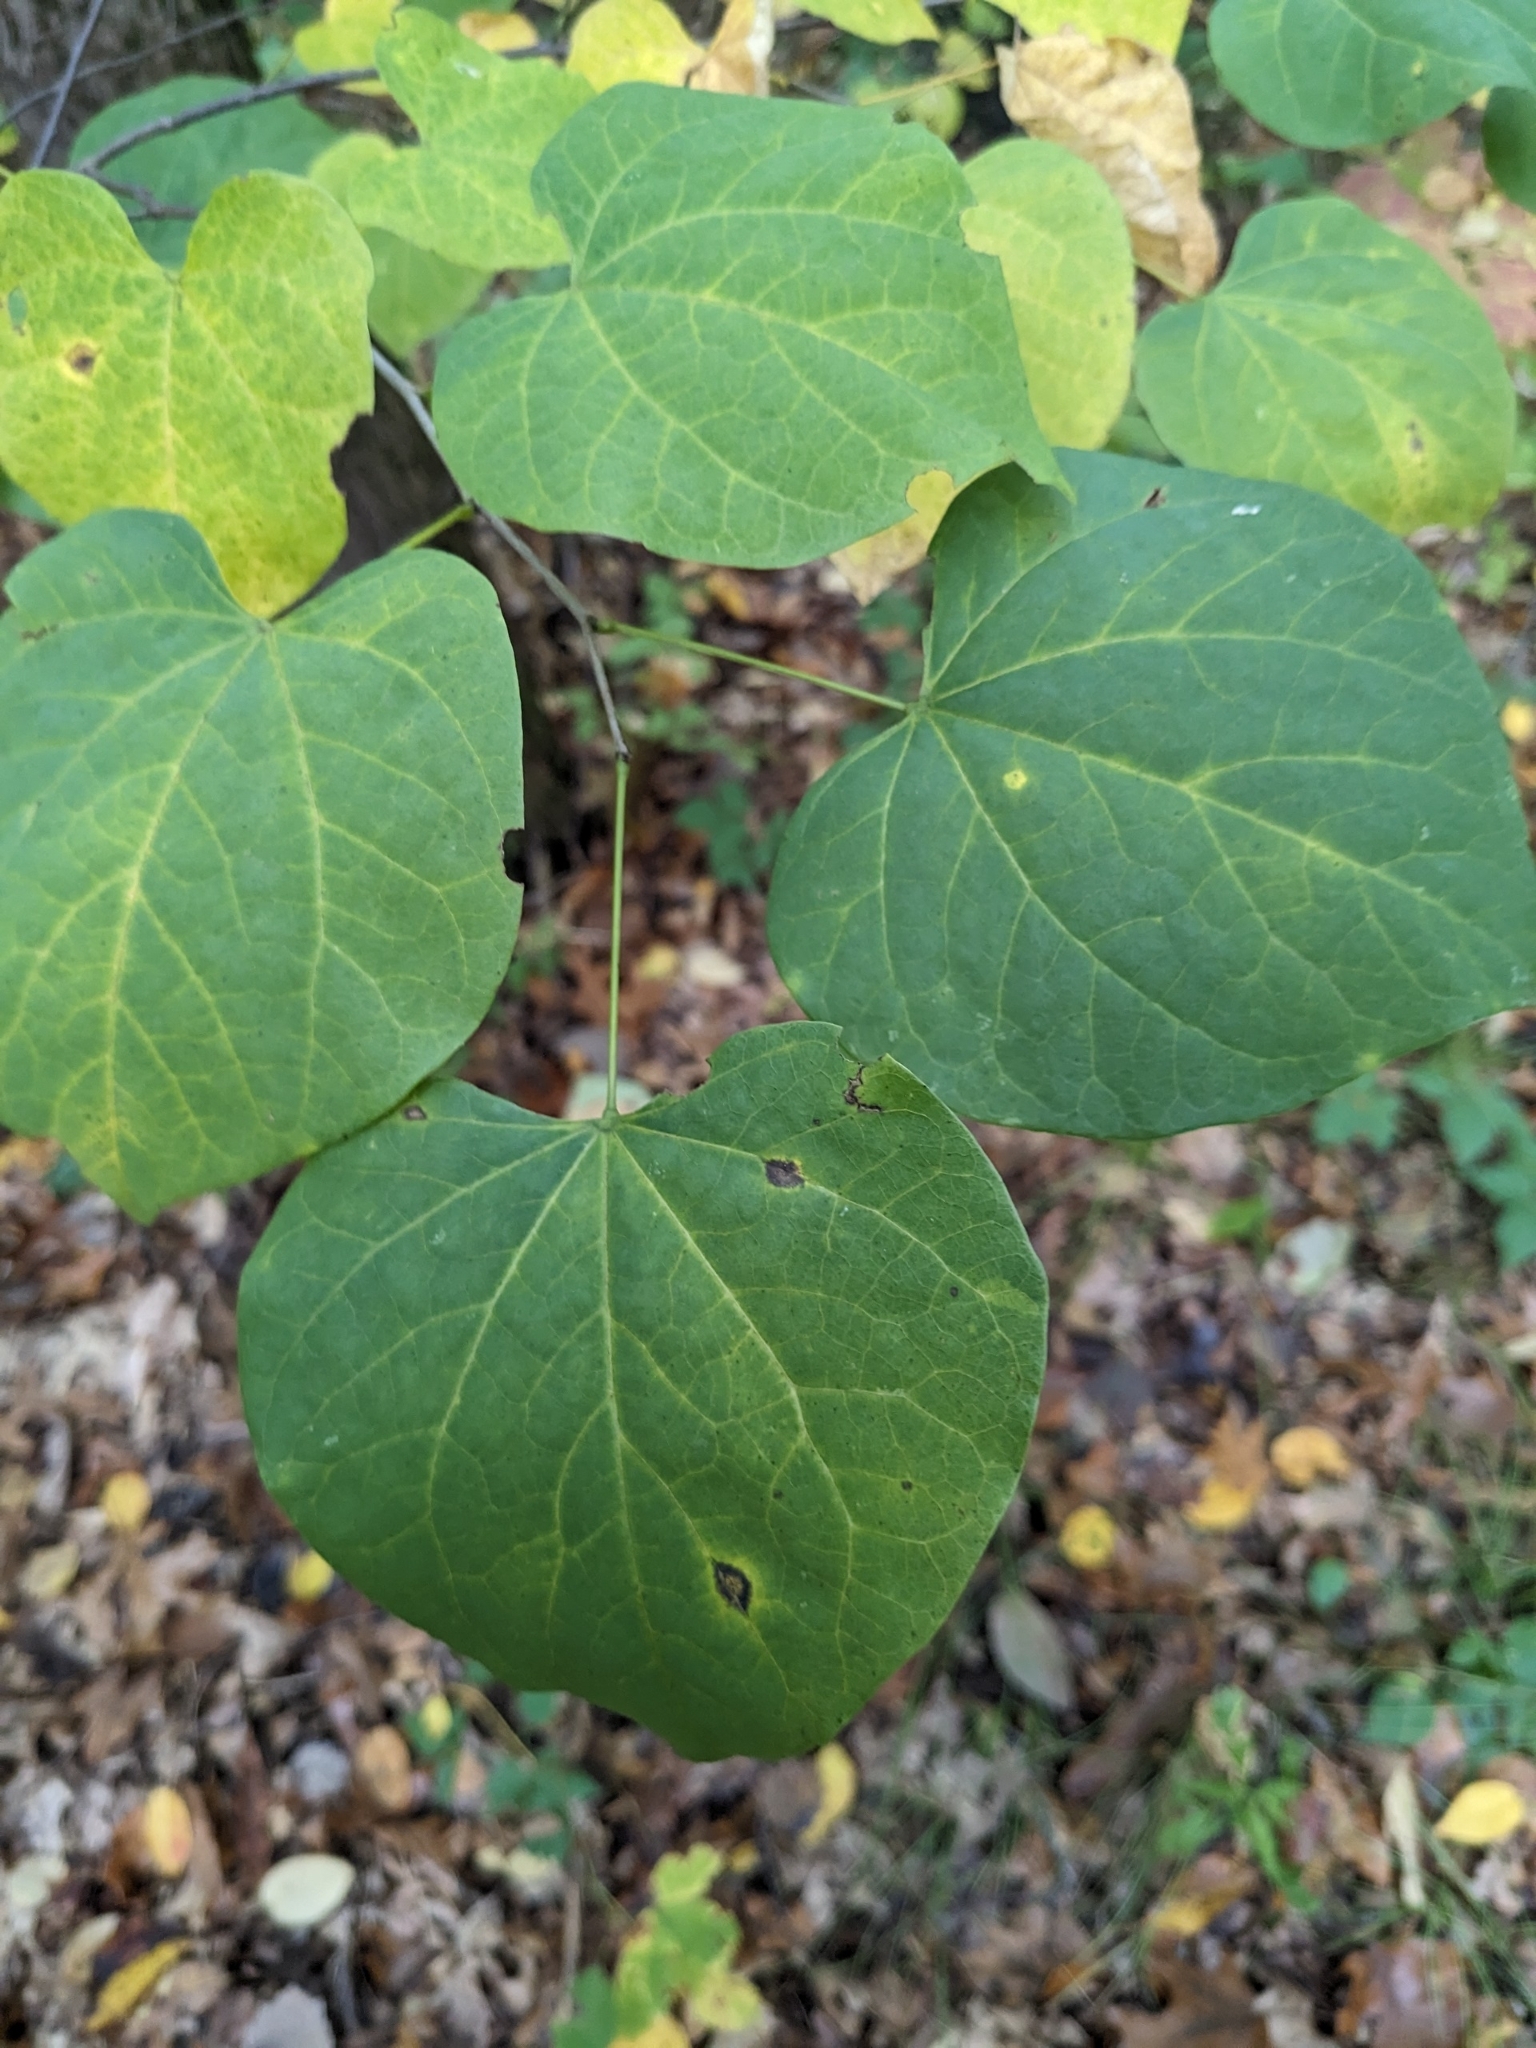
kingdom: Plantae
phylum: Tracheophyta
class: Magnoliopsida
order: Fabales
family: Fabaceae
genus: Cercis
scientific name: Cercis canadensis
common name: Eastern redbud
